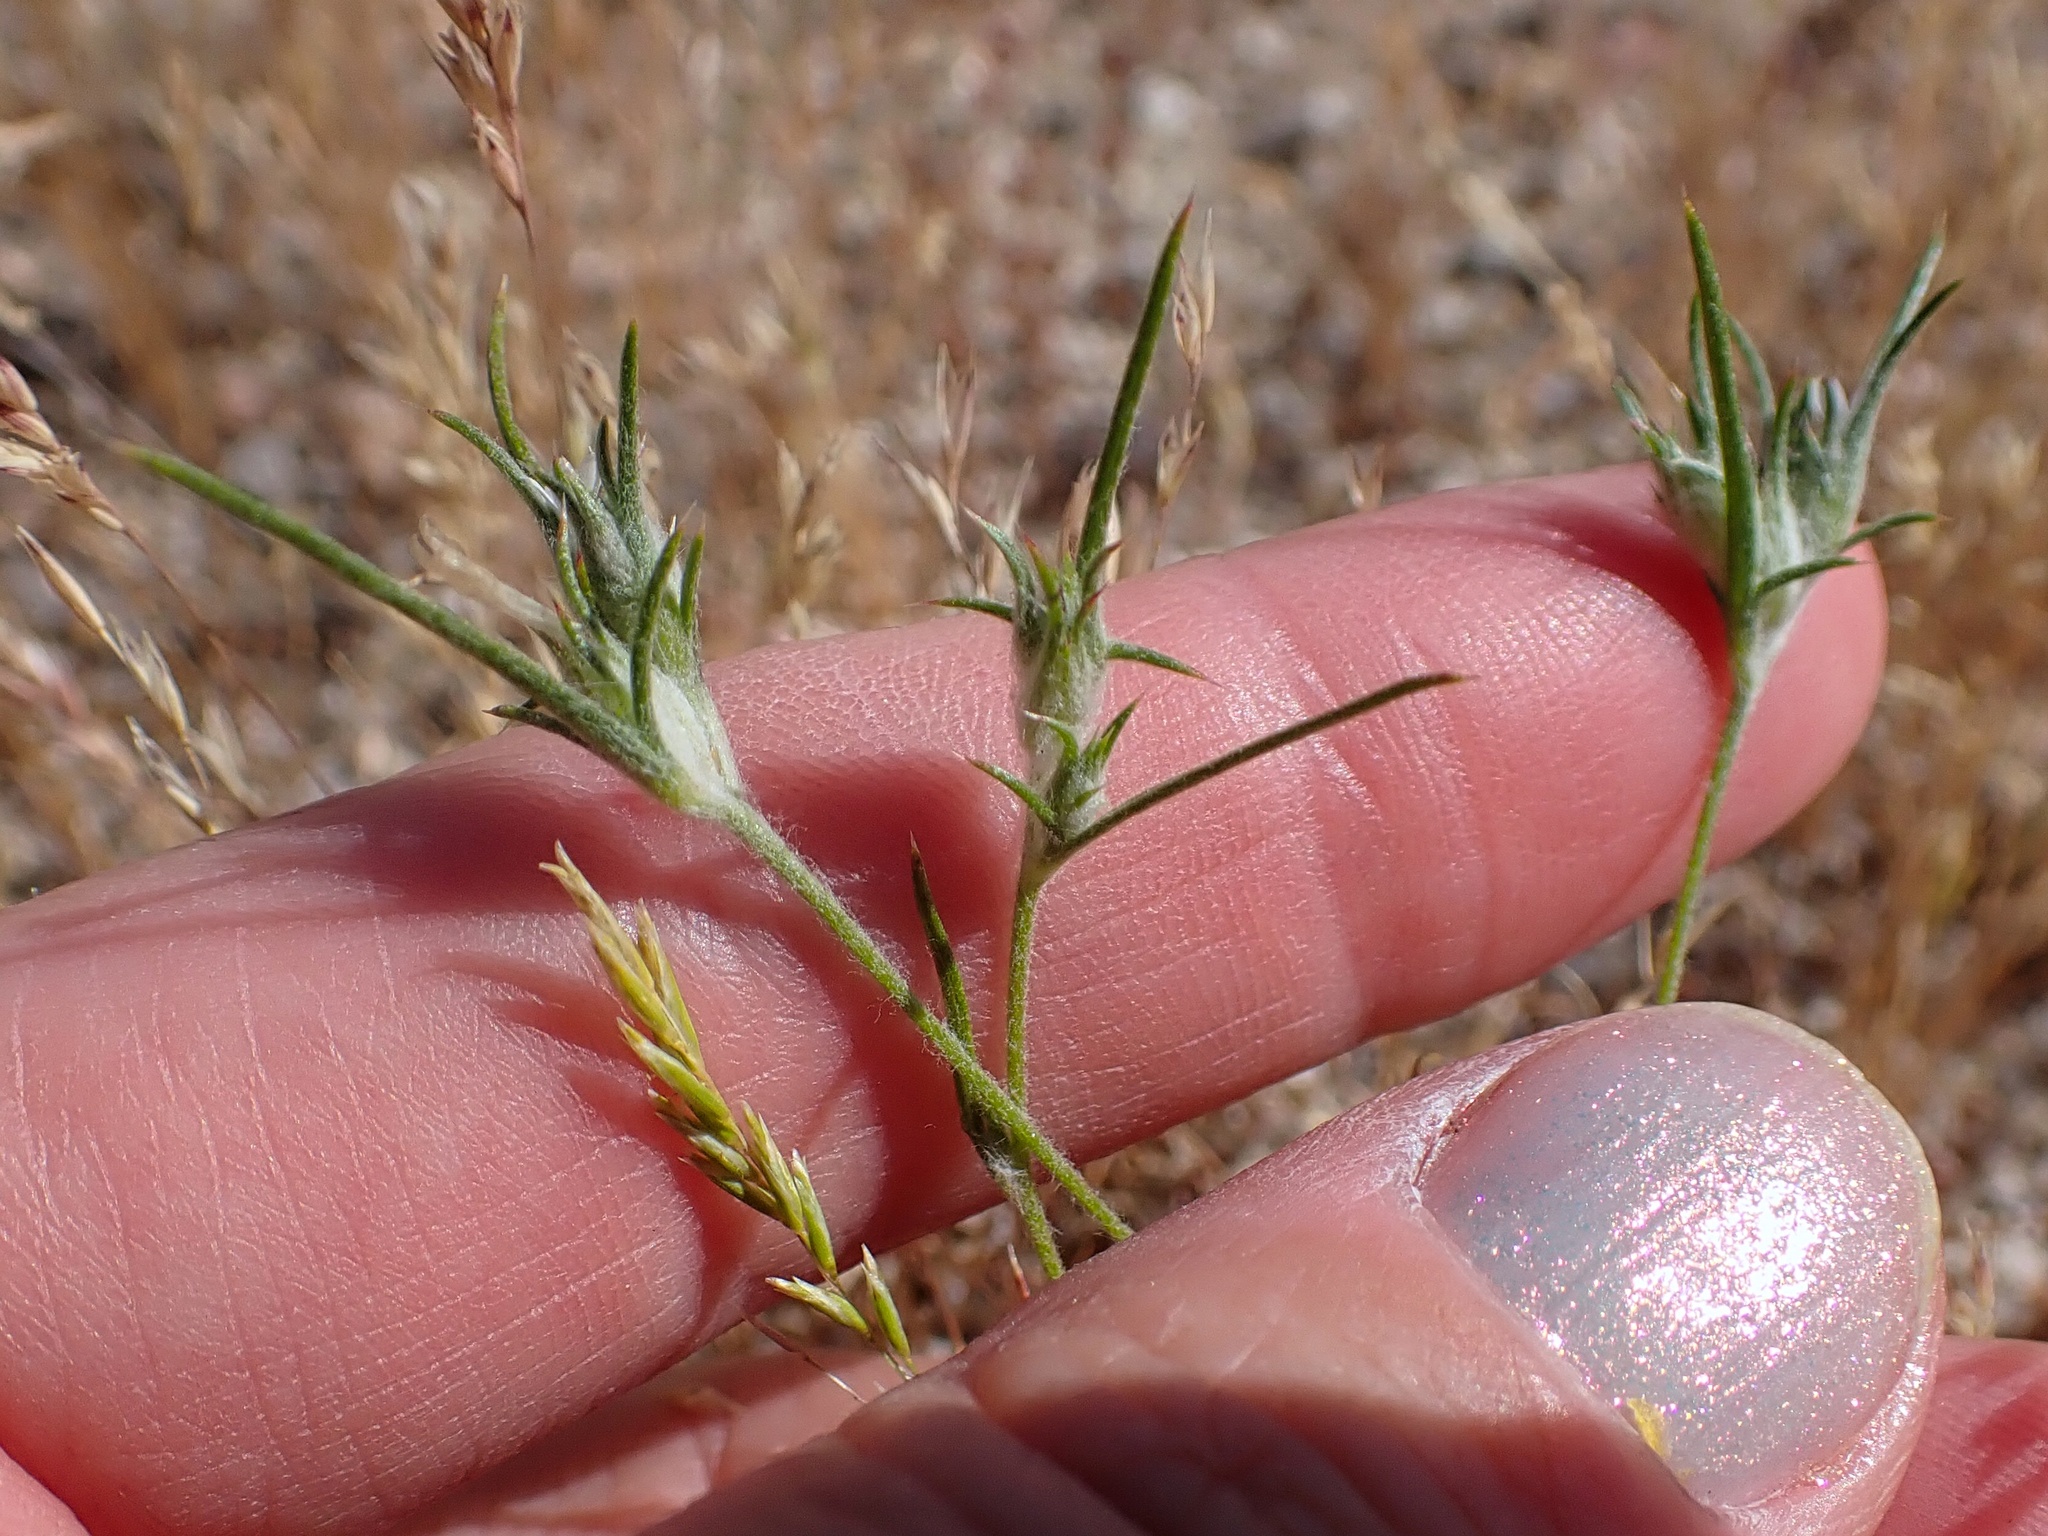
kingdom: Plantae
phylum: Tracheophyta
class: Magnoliopsida
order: Ericales
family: Polemoniaceae
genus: Eriastrum
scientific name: Eriastrum hooveri
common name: Hoover's woolly-star
